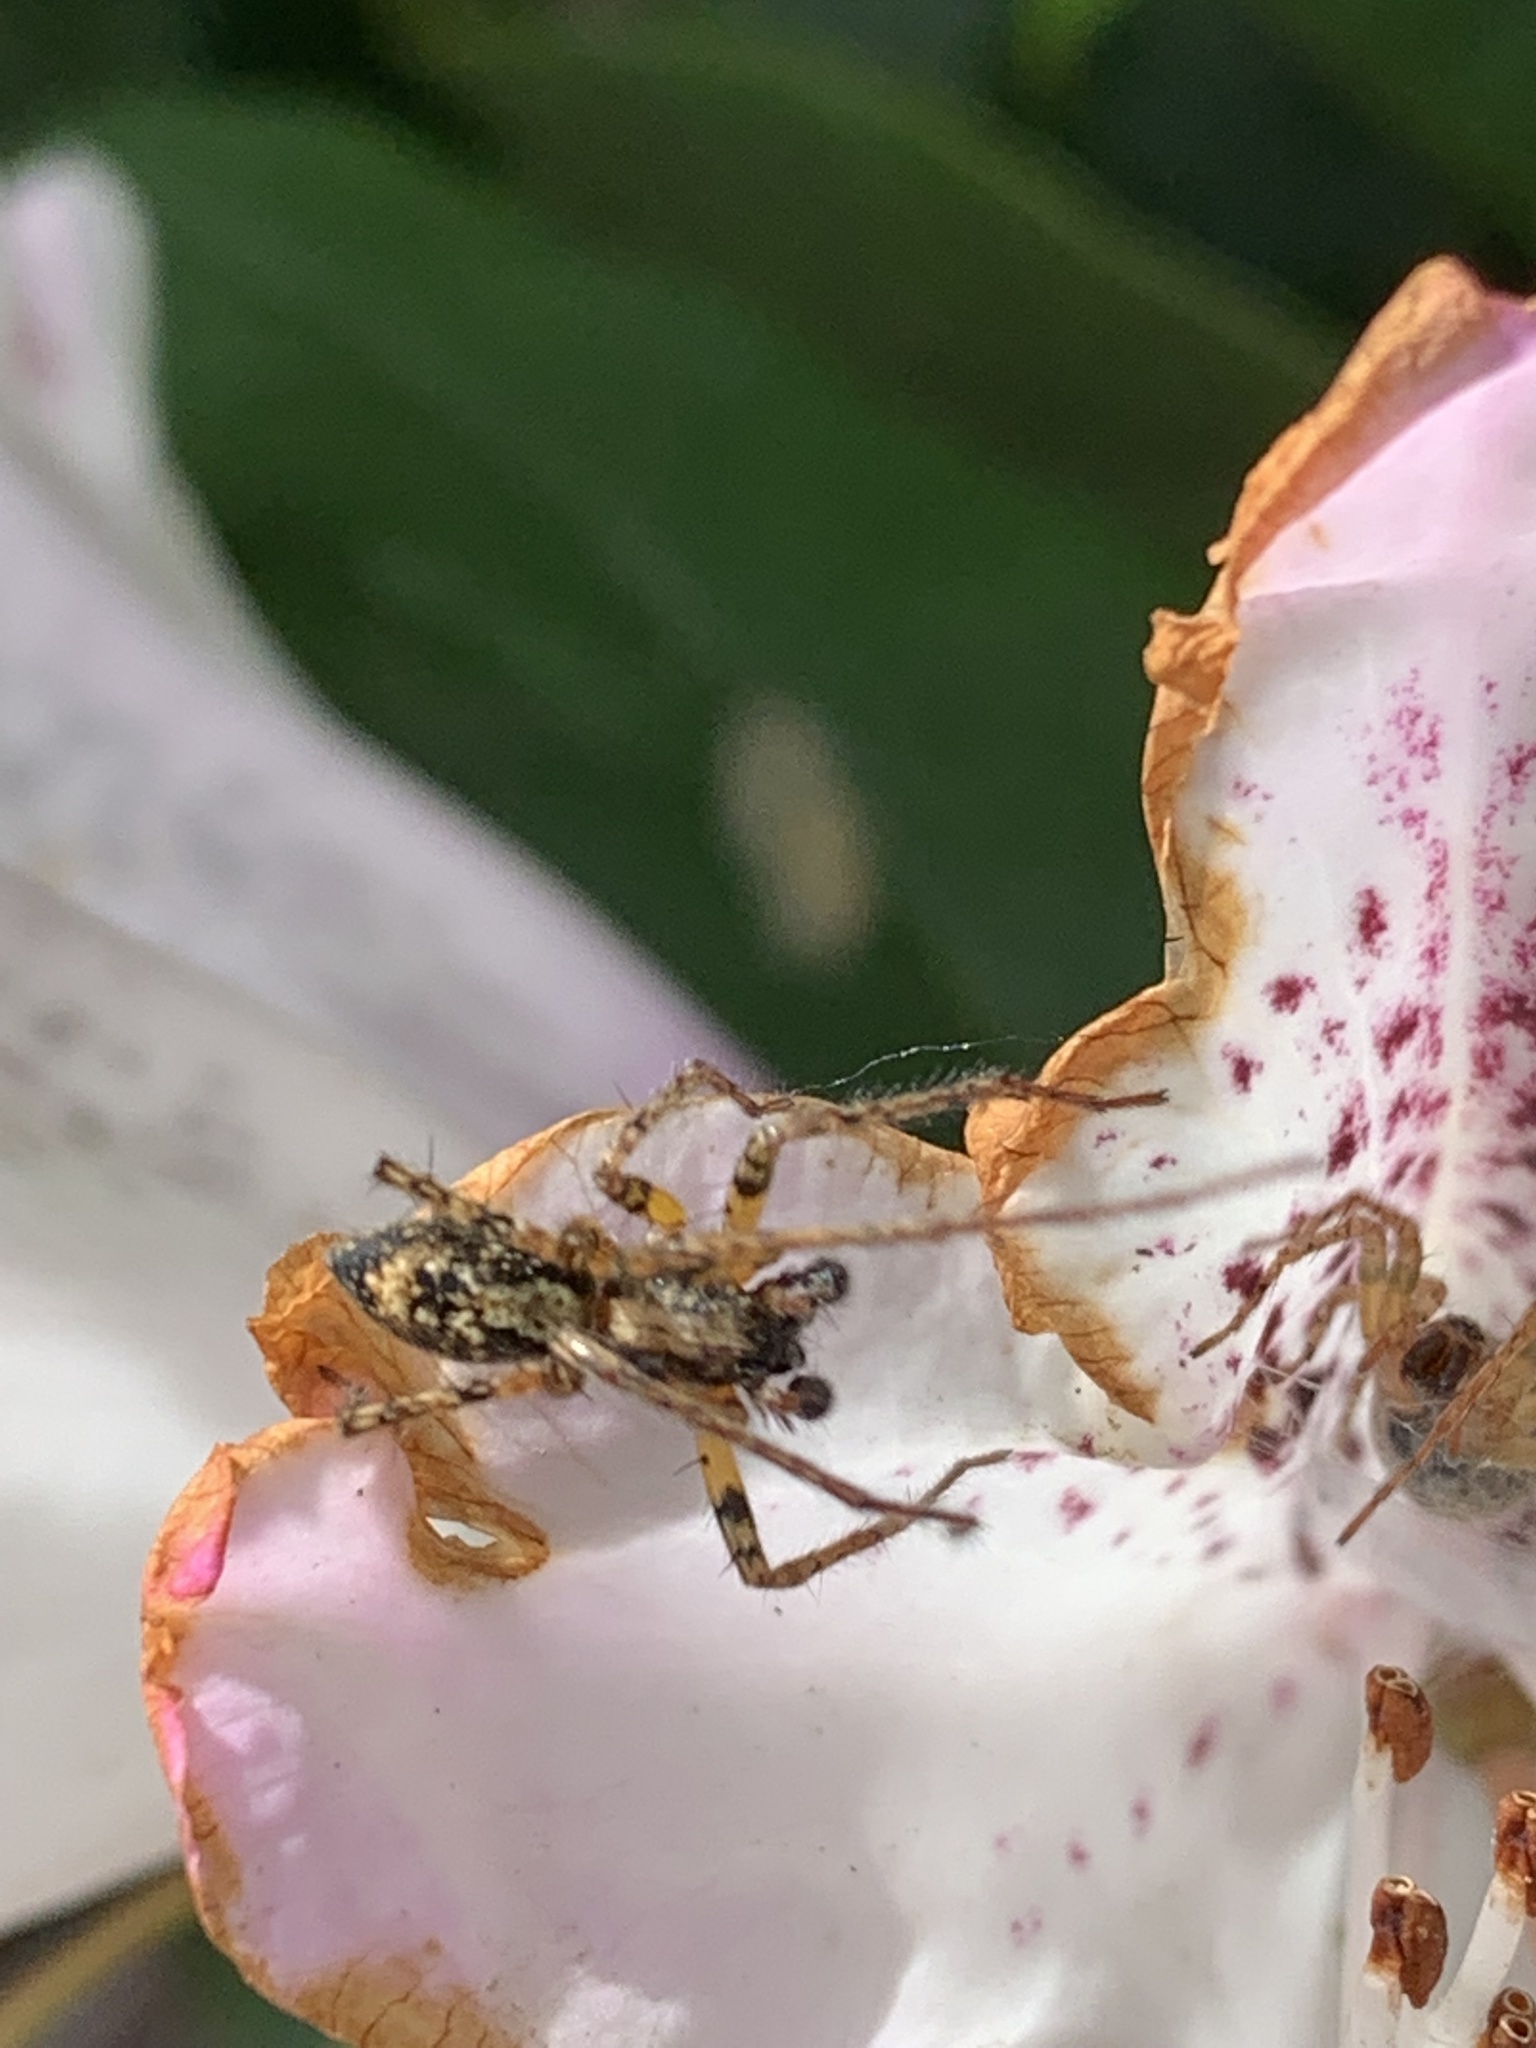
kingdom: Animalia
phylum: Arthropoda
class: Arachnida
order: Araneae
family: Anyphaenidae
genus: Anyphaena
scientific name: Anyphaena accentuata
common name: Buzzing spider
